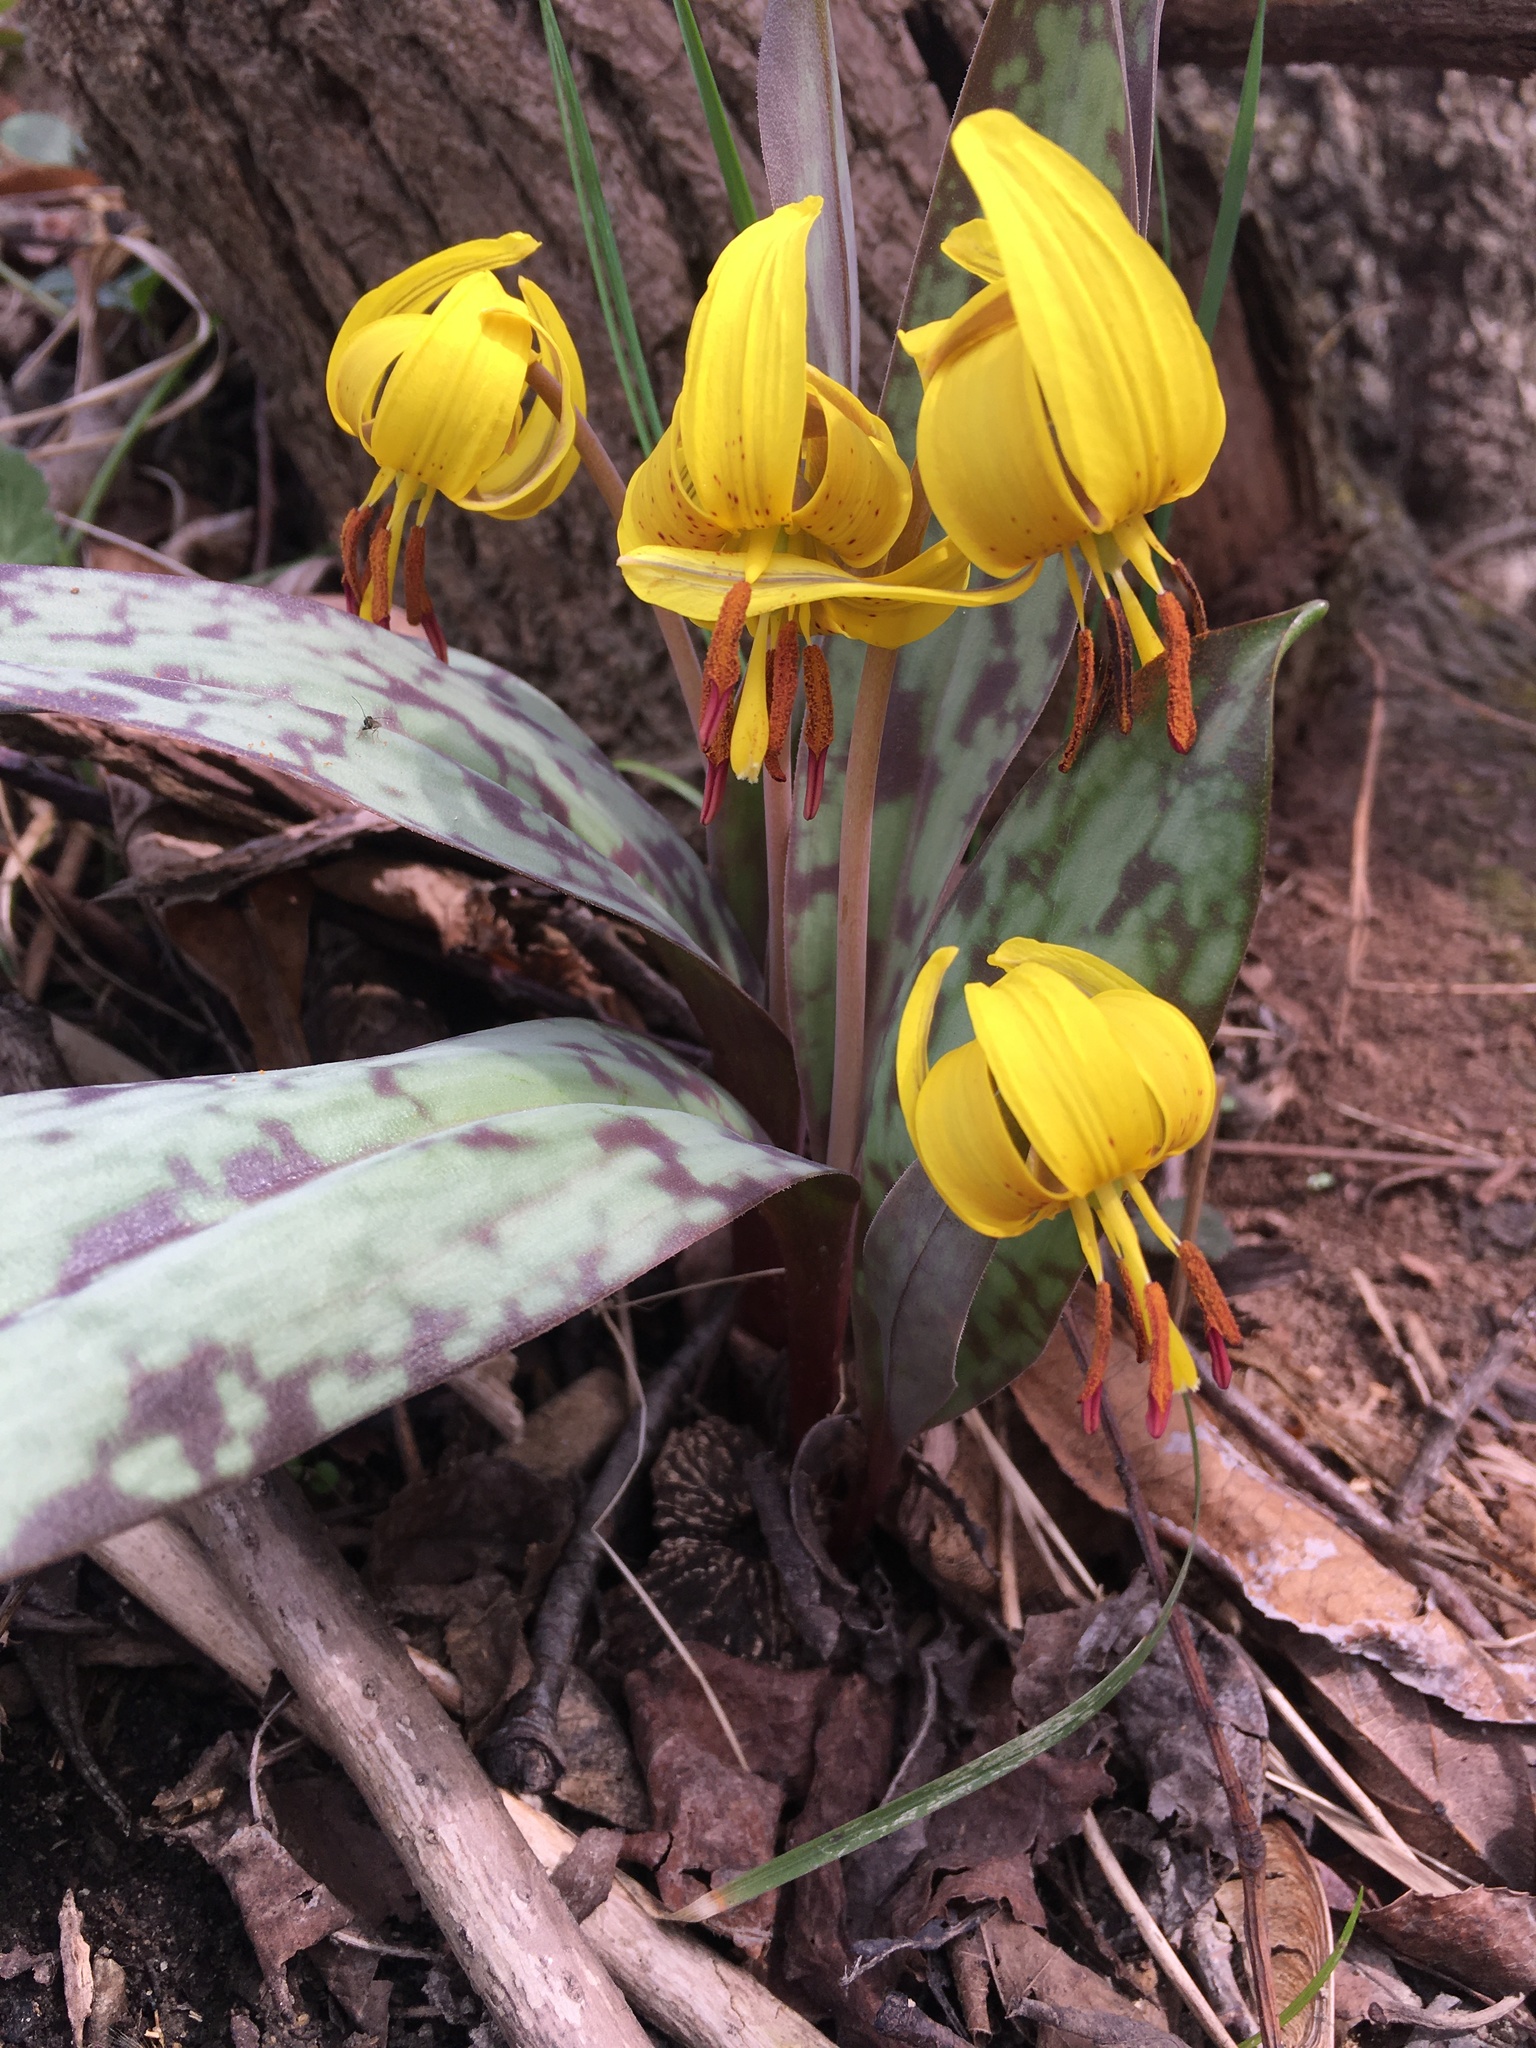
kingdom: Plantae
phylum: Tracheophyta
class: Liliopsida
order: Liliales
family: Liliaceae
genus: Erythronium
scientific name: Erythronium americanum
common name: Yellow adder's-tongue
